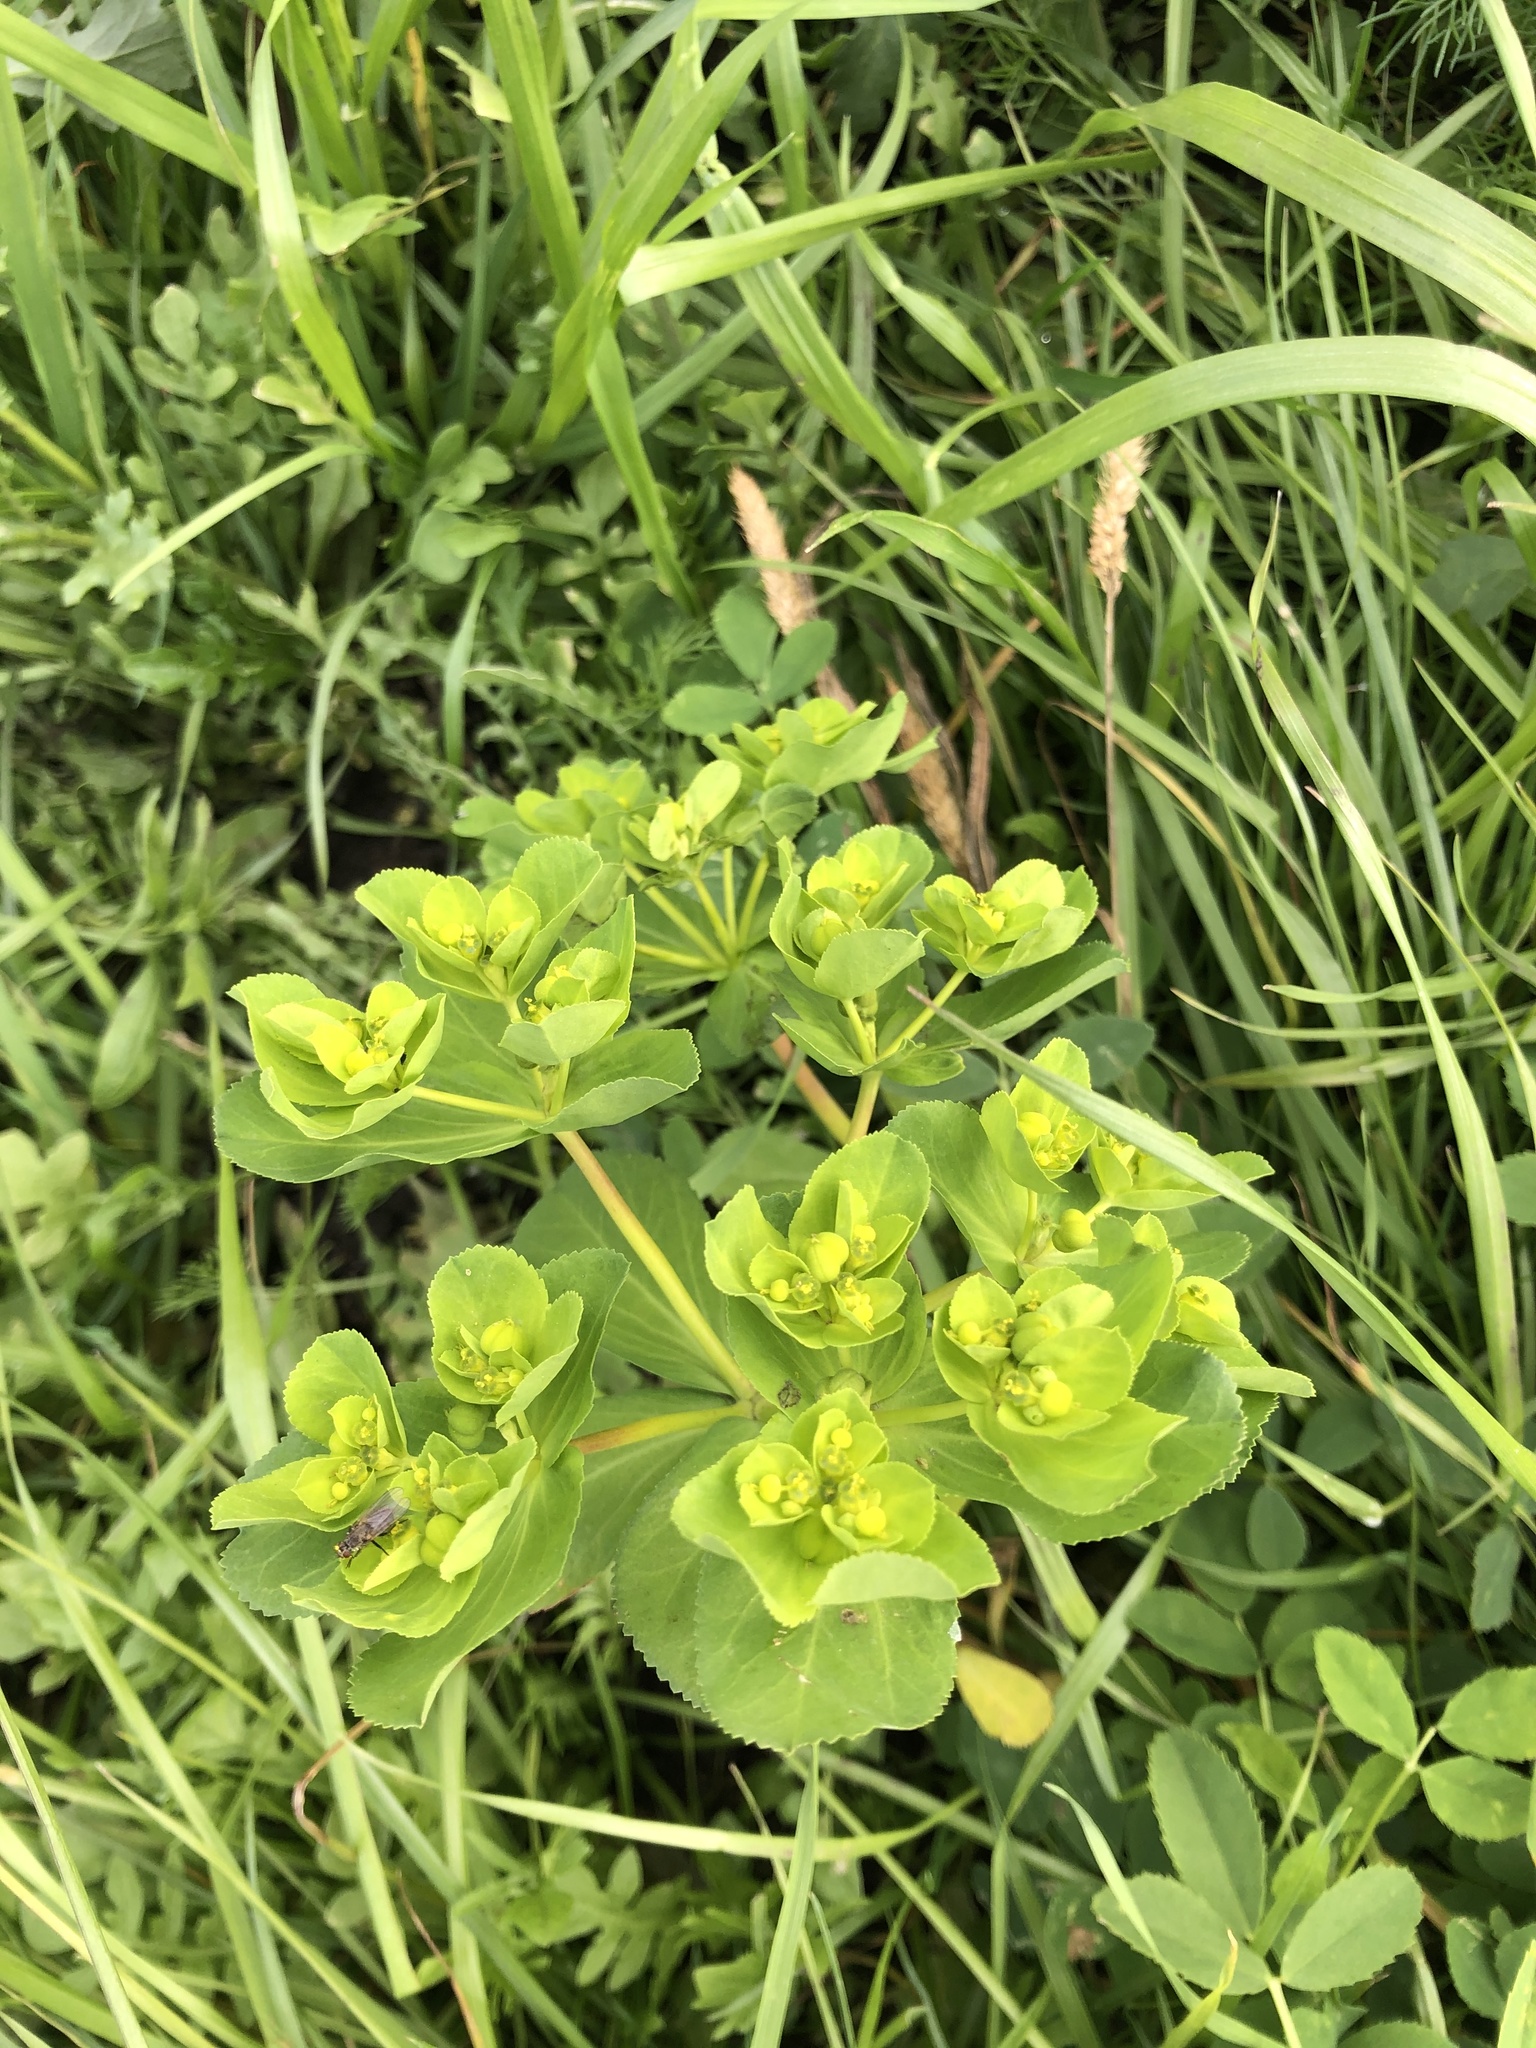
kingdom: Plantae
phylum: Tracheophyta
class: Magnoliopsida
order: Malpighiales
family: Euphorbiaceae
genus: Euphorbia
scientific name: Euphorbia helioscopia
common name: Sun spurge
